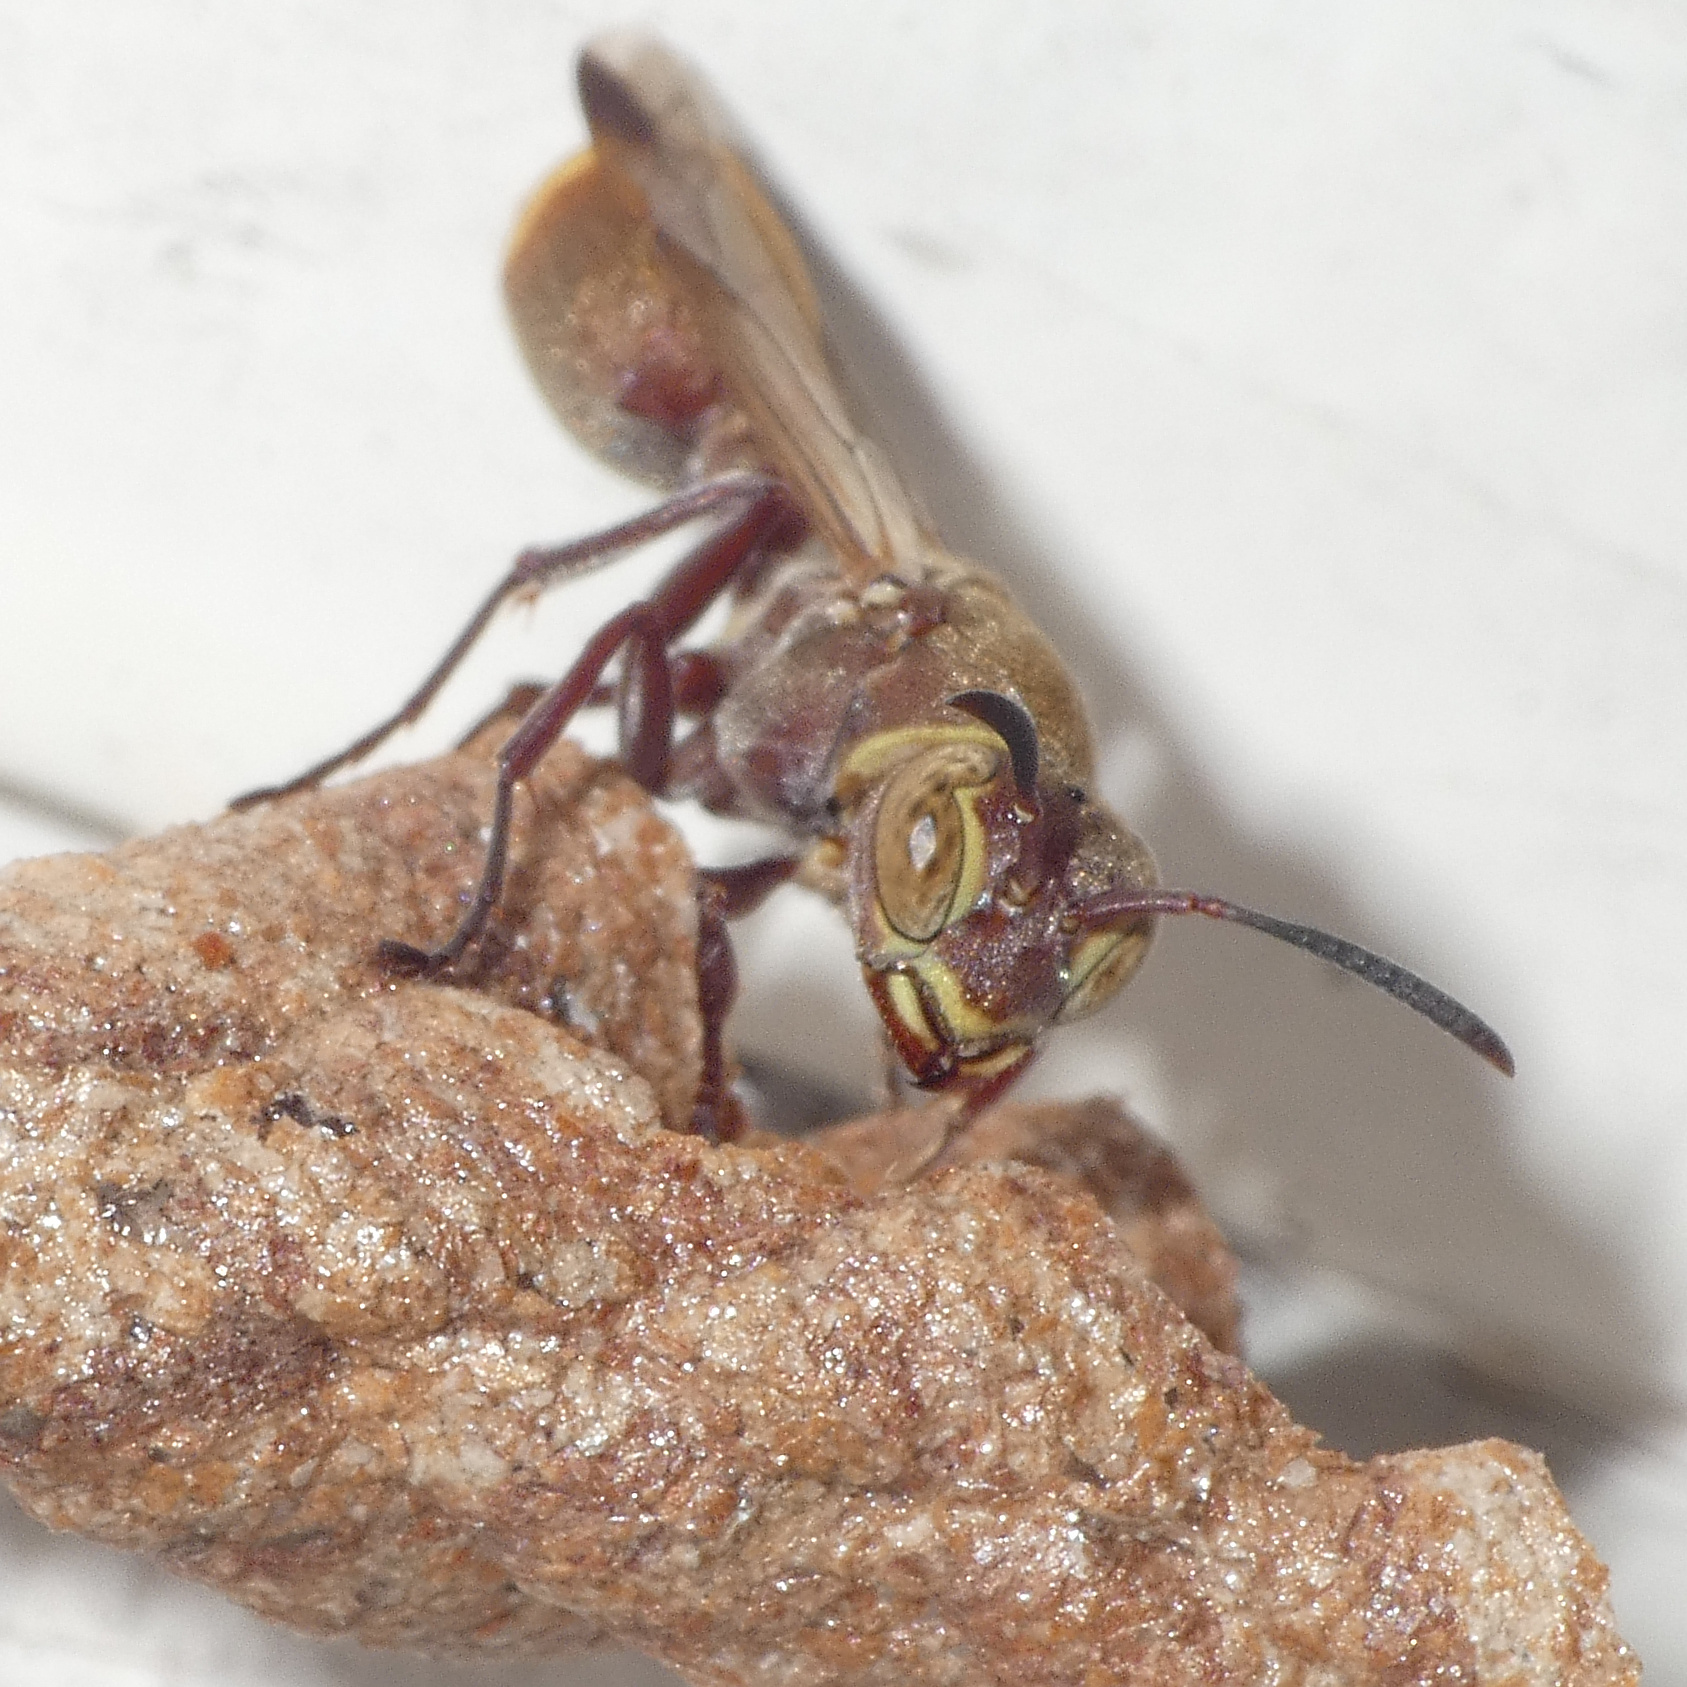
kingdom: Animalia
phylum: Arthropoda
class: Insecta
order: Hymenoptera
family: Vespidae
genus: Ropalidia
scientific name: Ropalidia distigma
